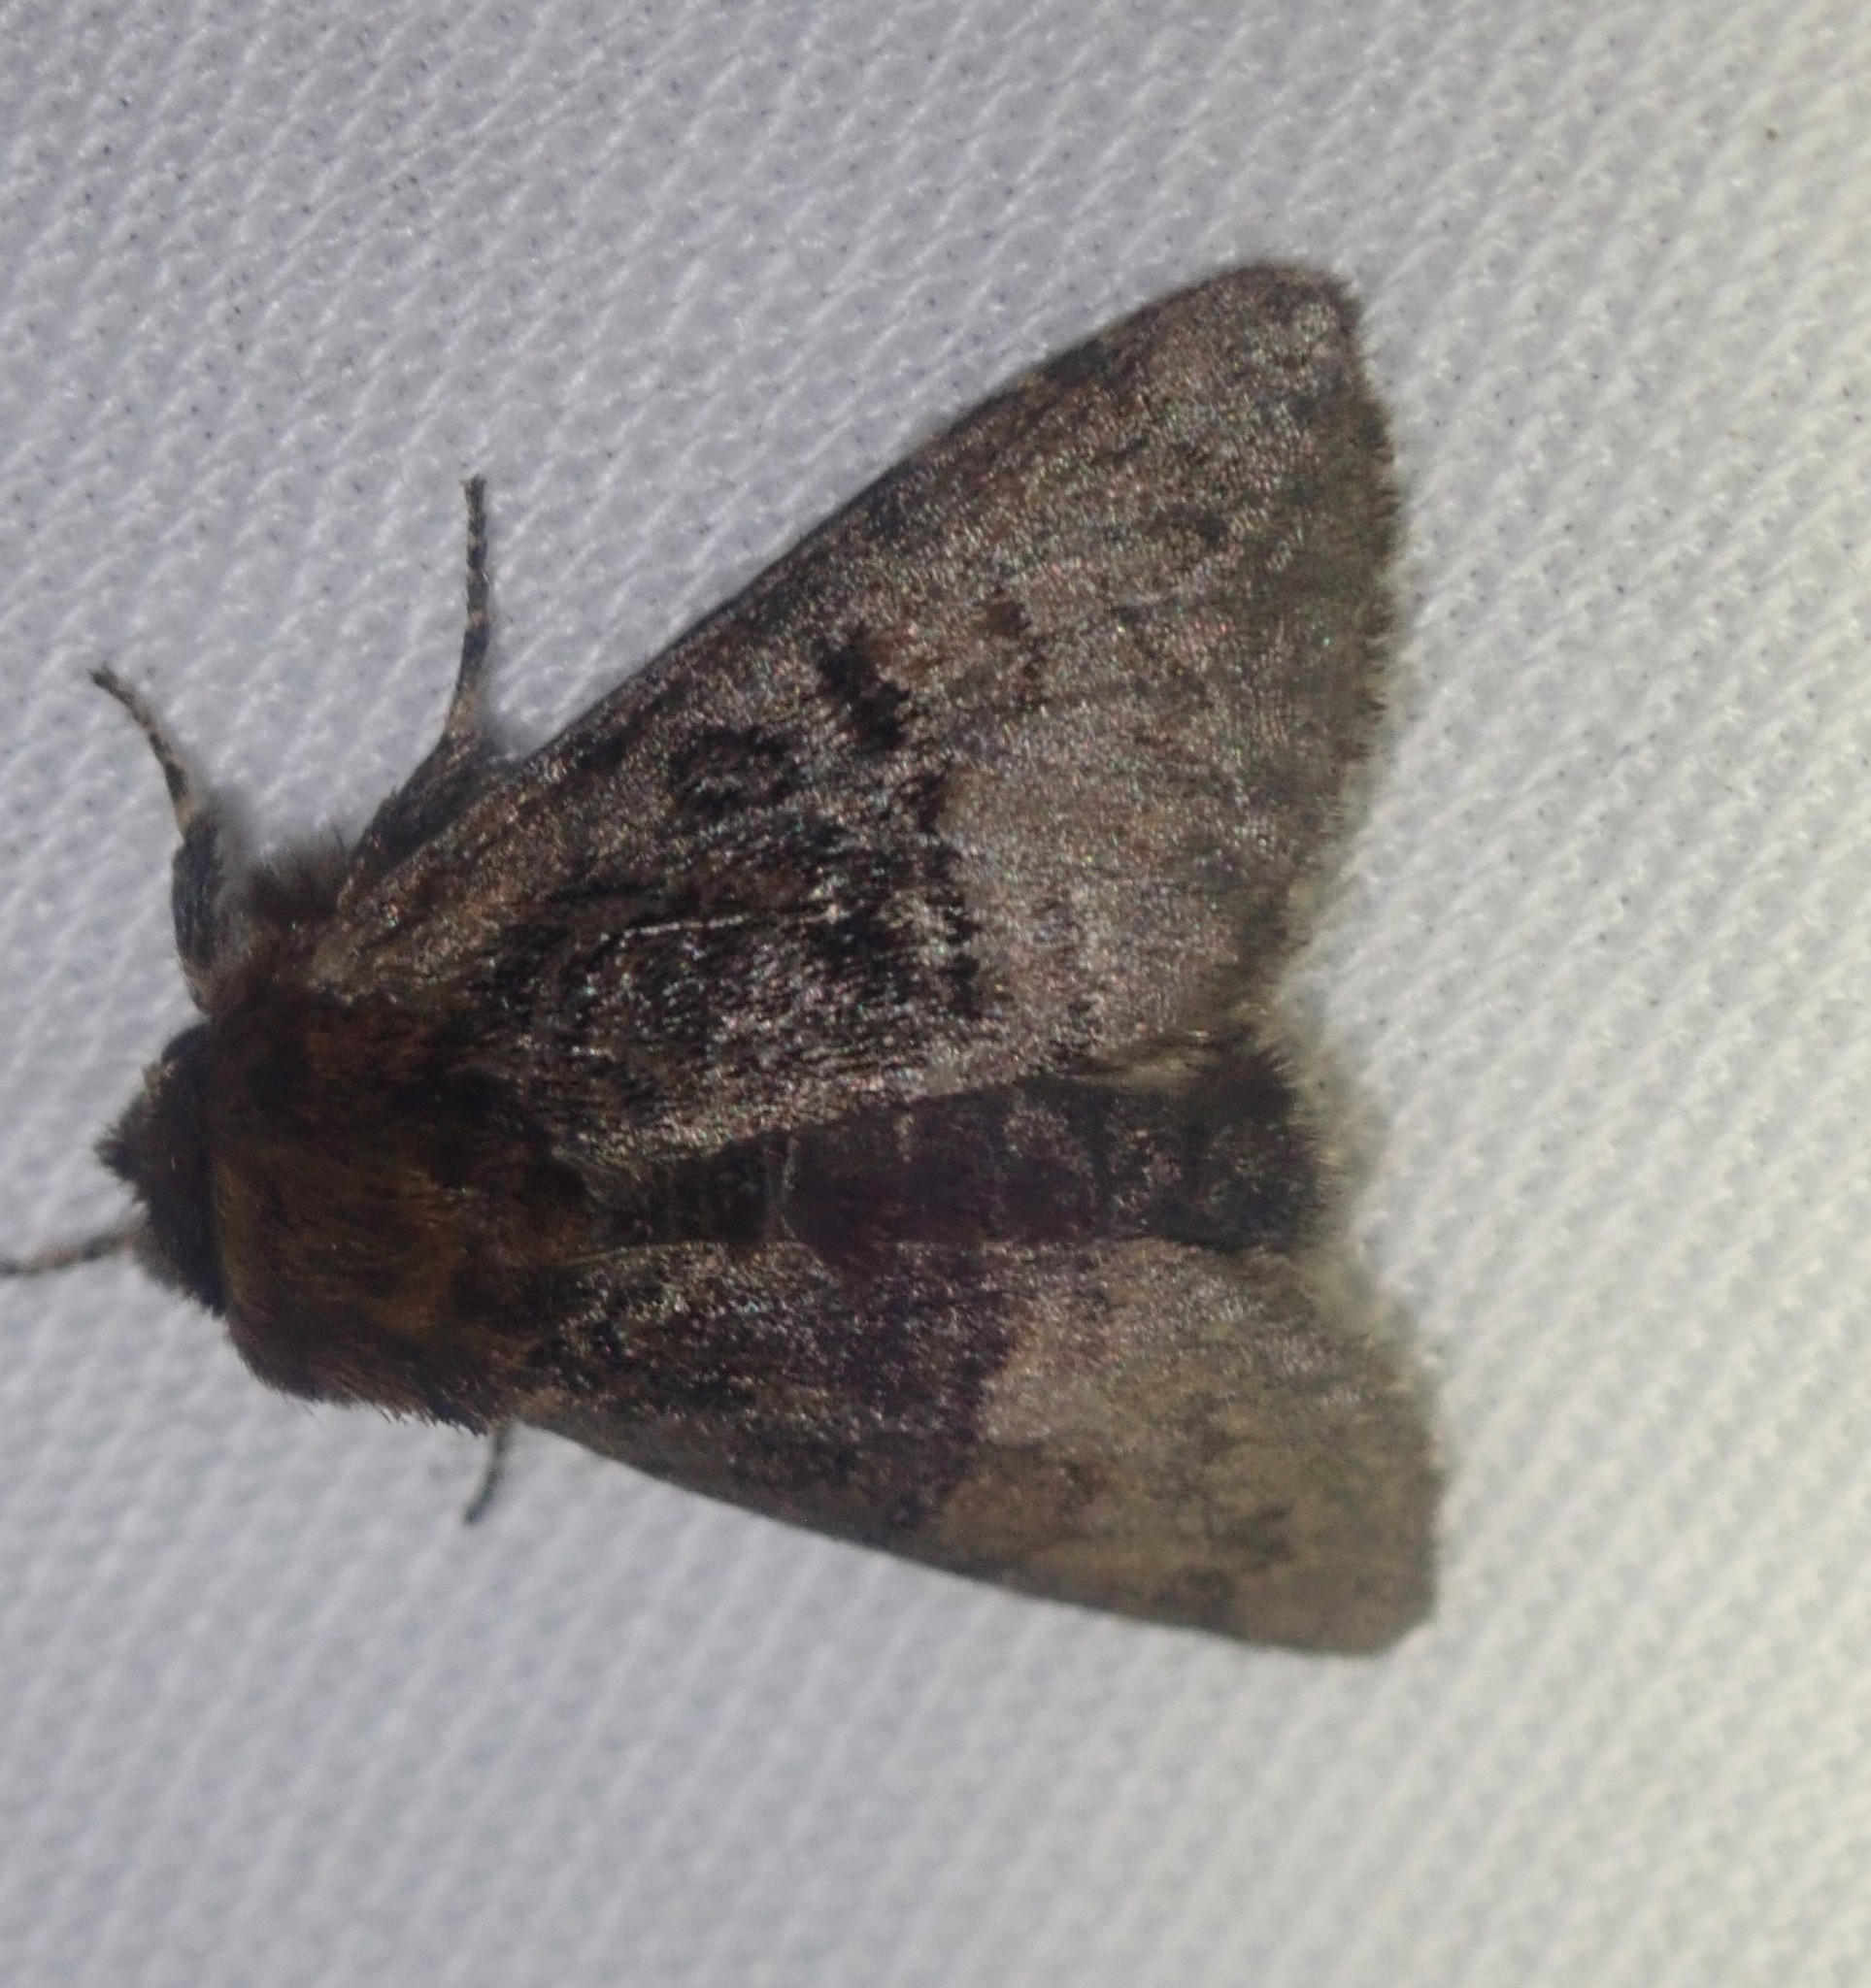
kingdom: Animalia
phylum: Arthropoda
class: Insecta
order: Lepidoptera
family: Noctuidae
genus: Colocasia
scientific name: Colocasia coryli
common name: Nut-tree tussock
